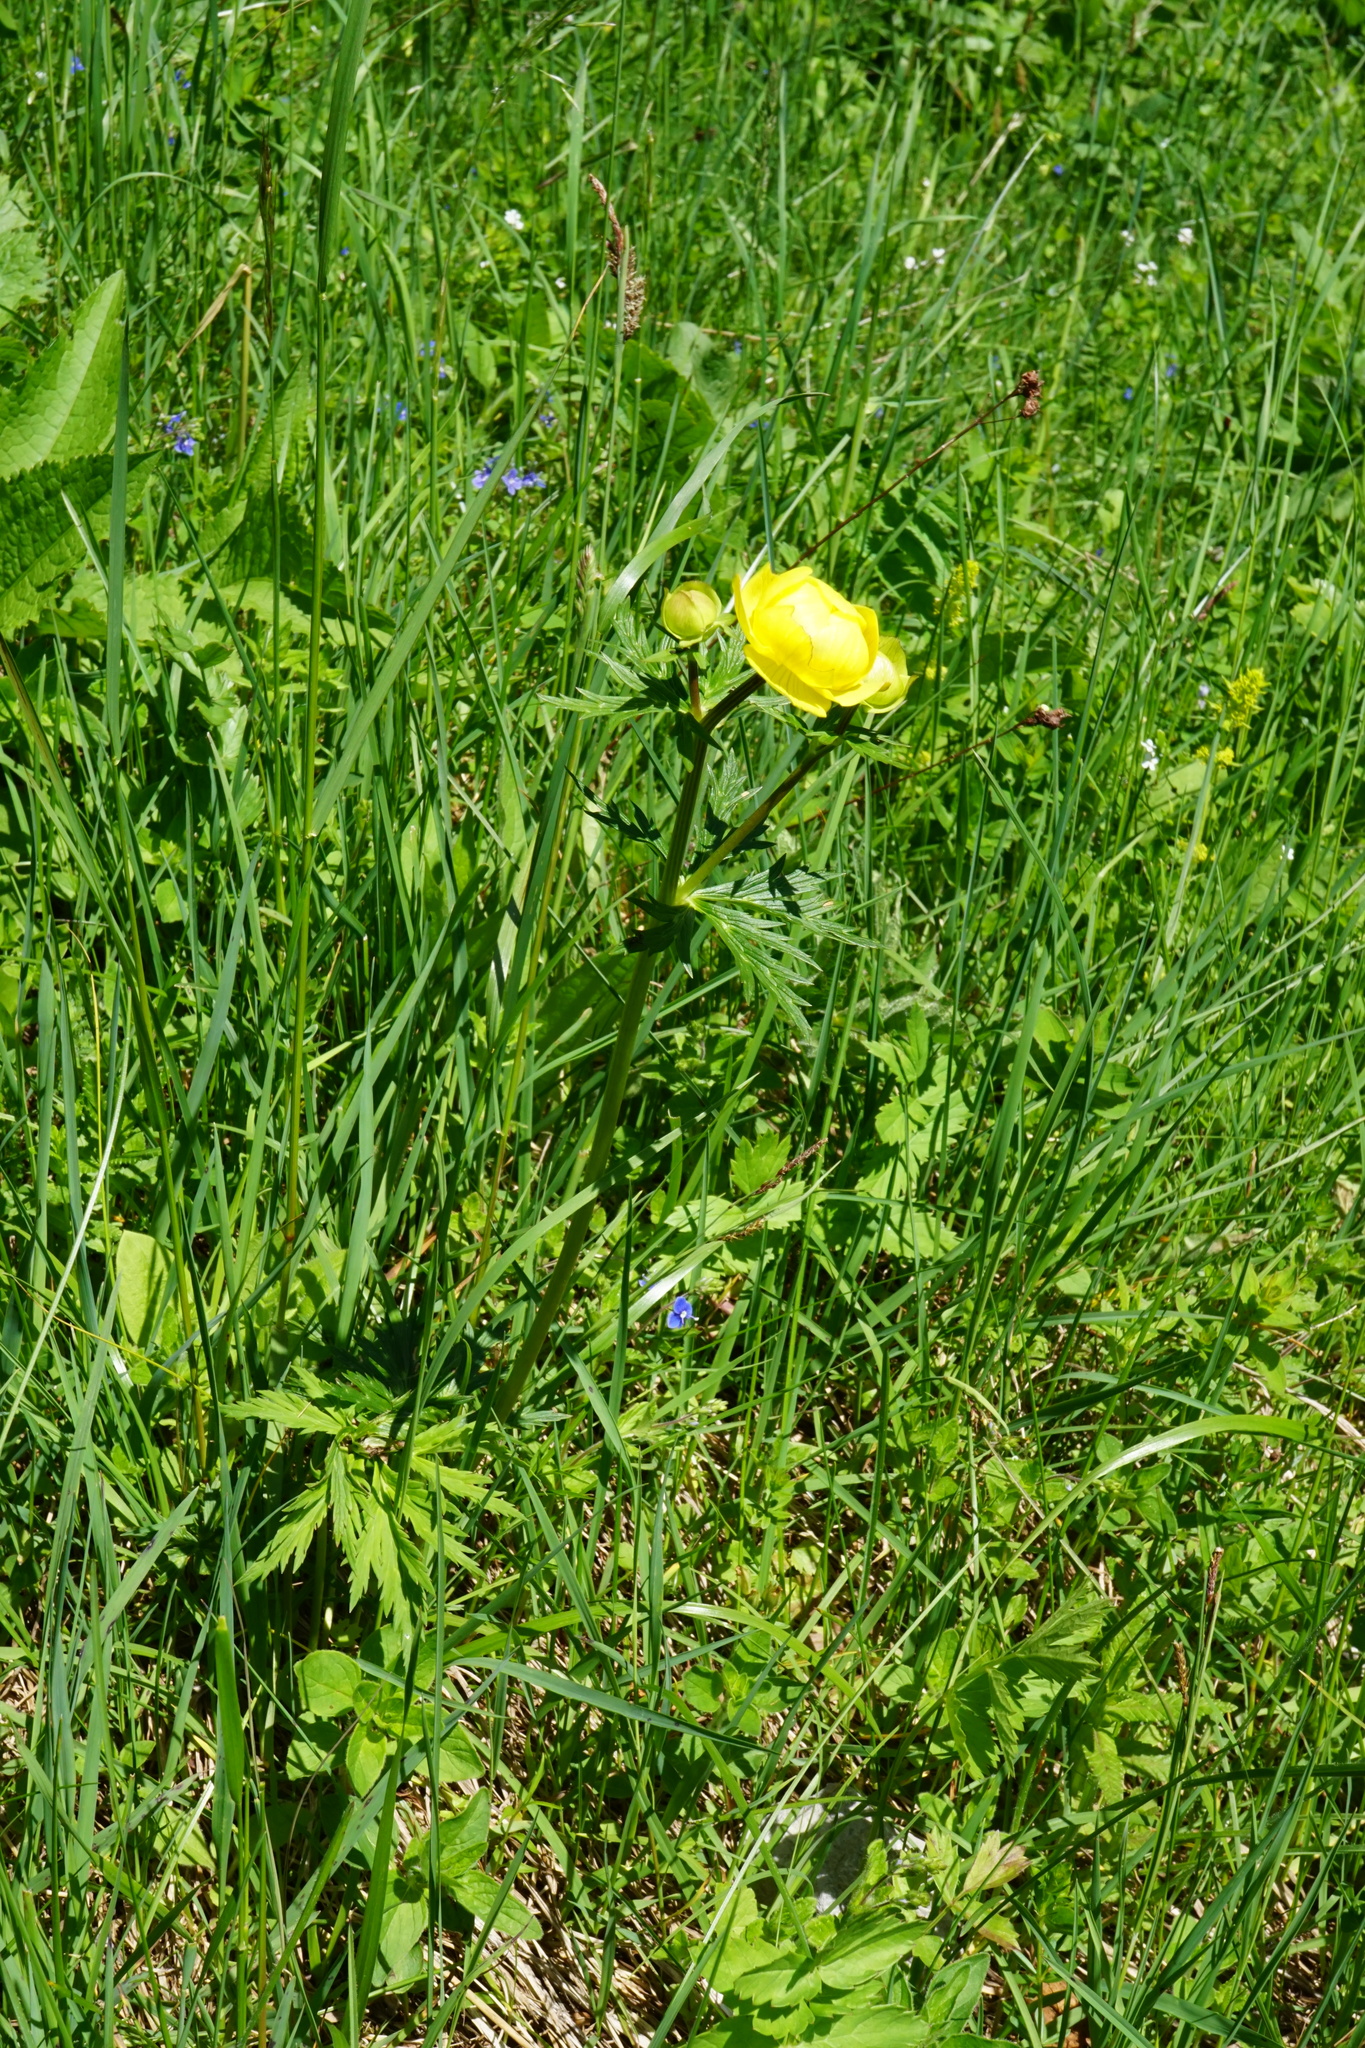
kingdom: Plantae
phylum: Tracheophyta
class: Magnoliopsida
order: Ranunculales
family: Ranunculaceae
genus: Trollius
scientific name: Trollius europaeus
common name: European globeflower
